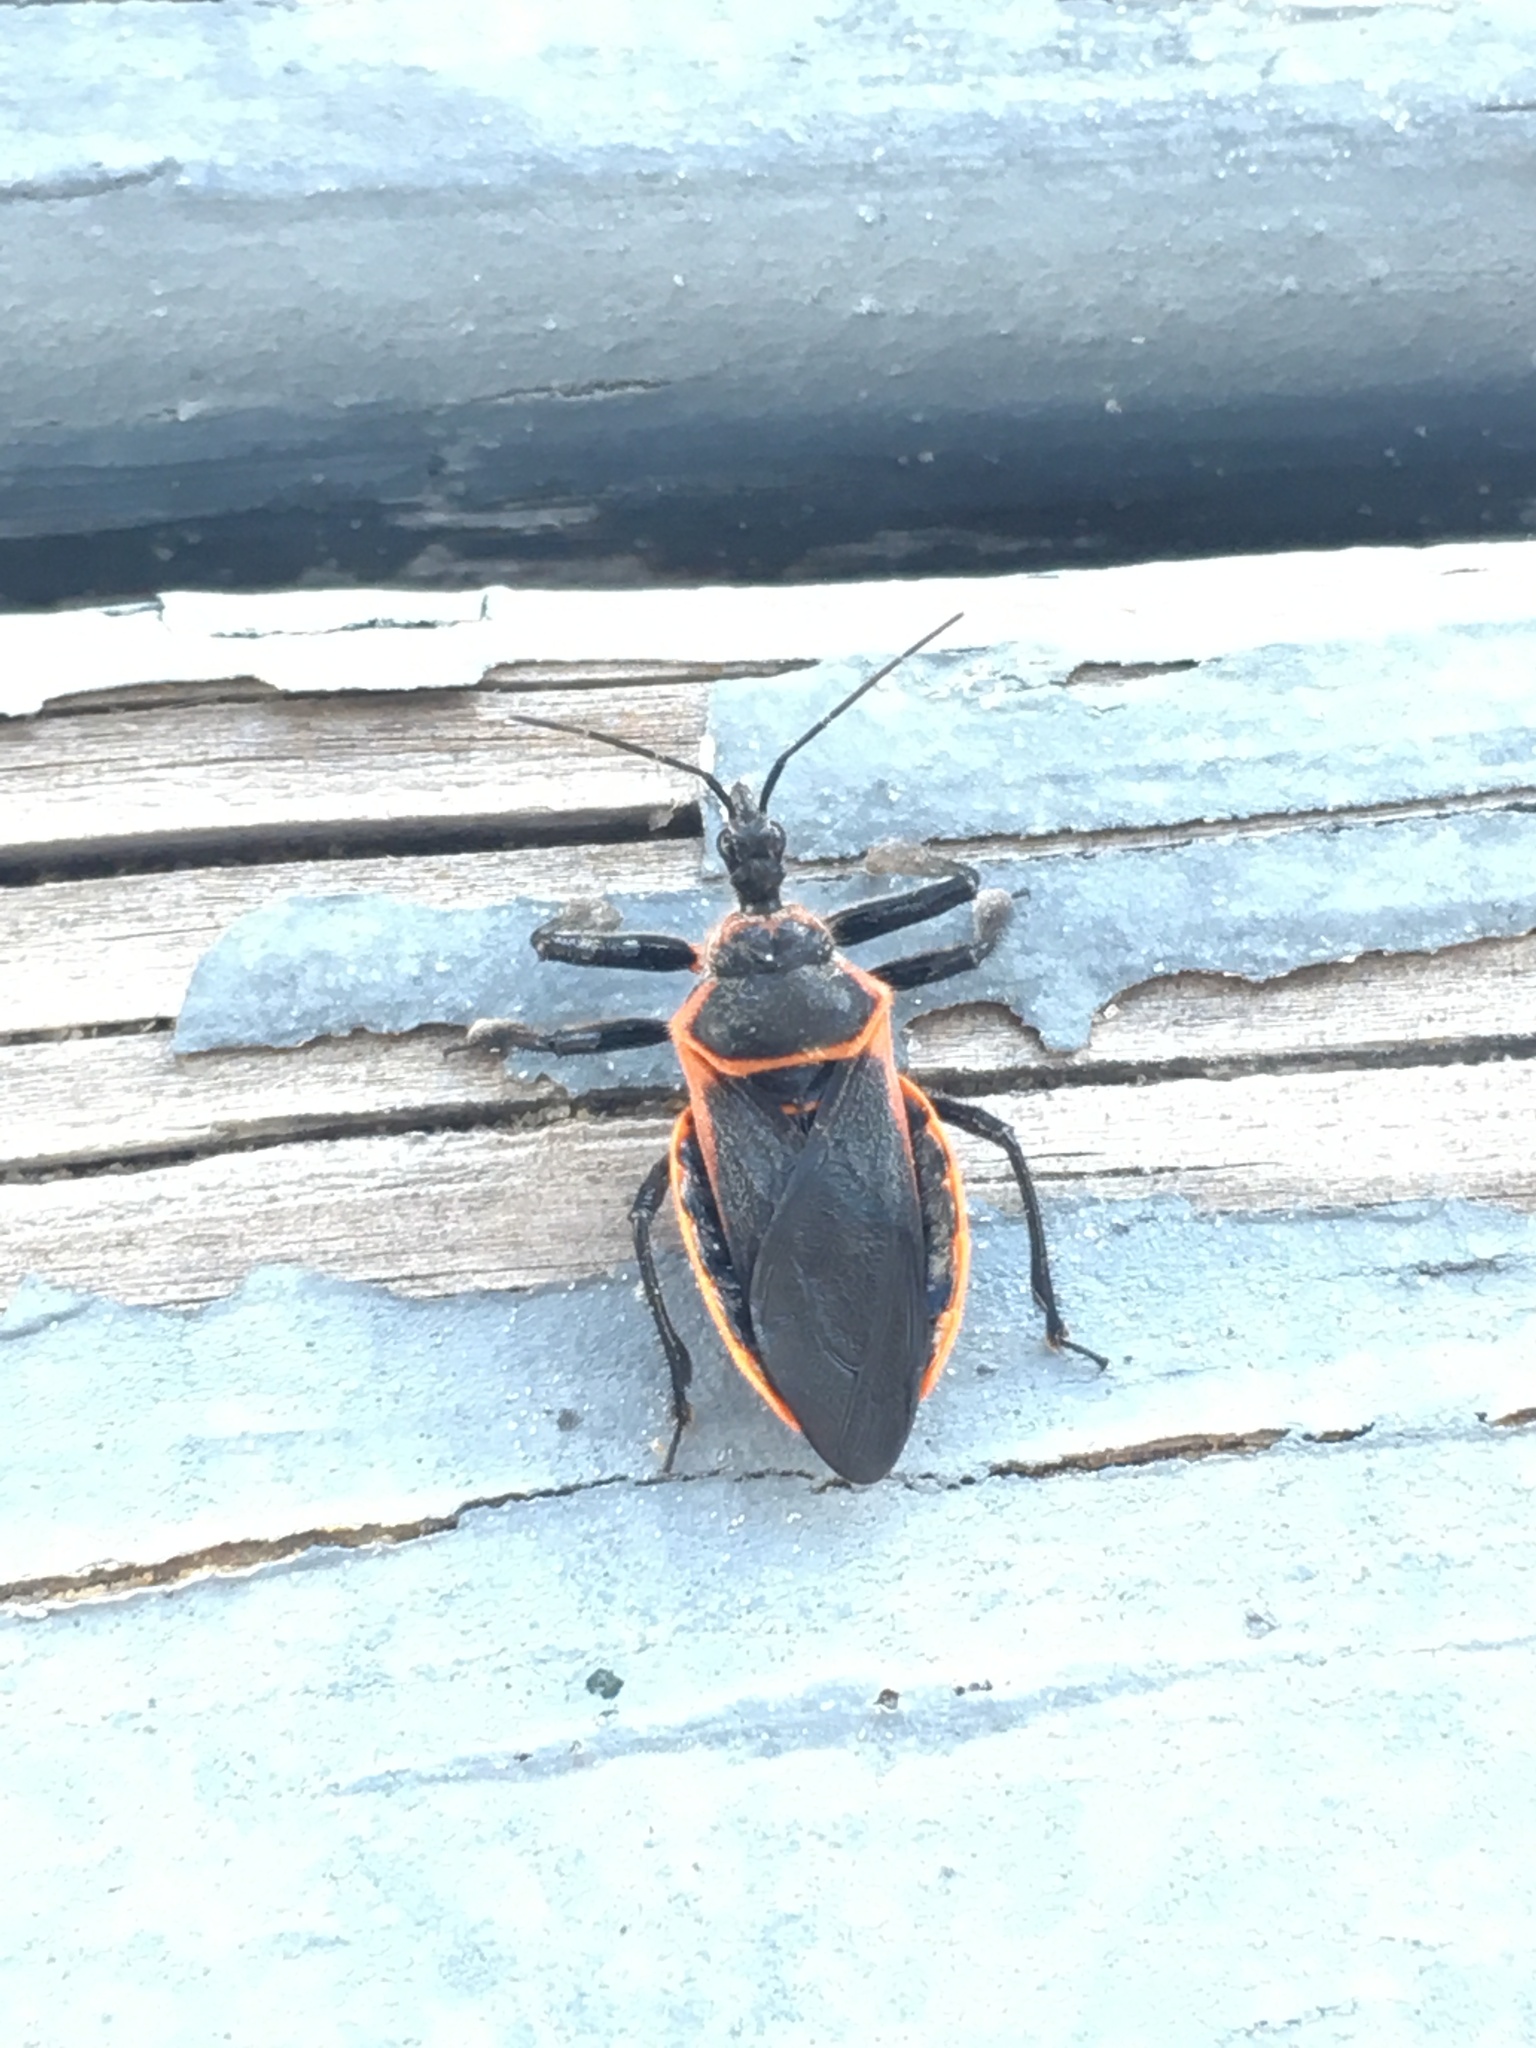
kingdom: Animalia
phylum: Arthropoda
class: Insecta
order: Hemiptera
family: Reduviidae
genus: Apiomerus
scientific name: Apiomerus crassipes
